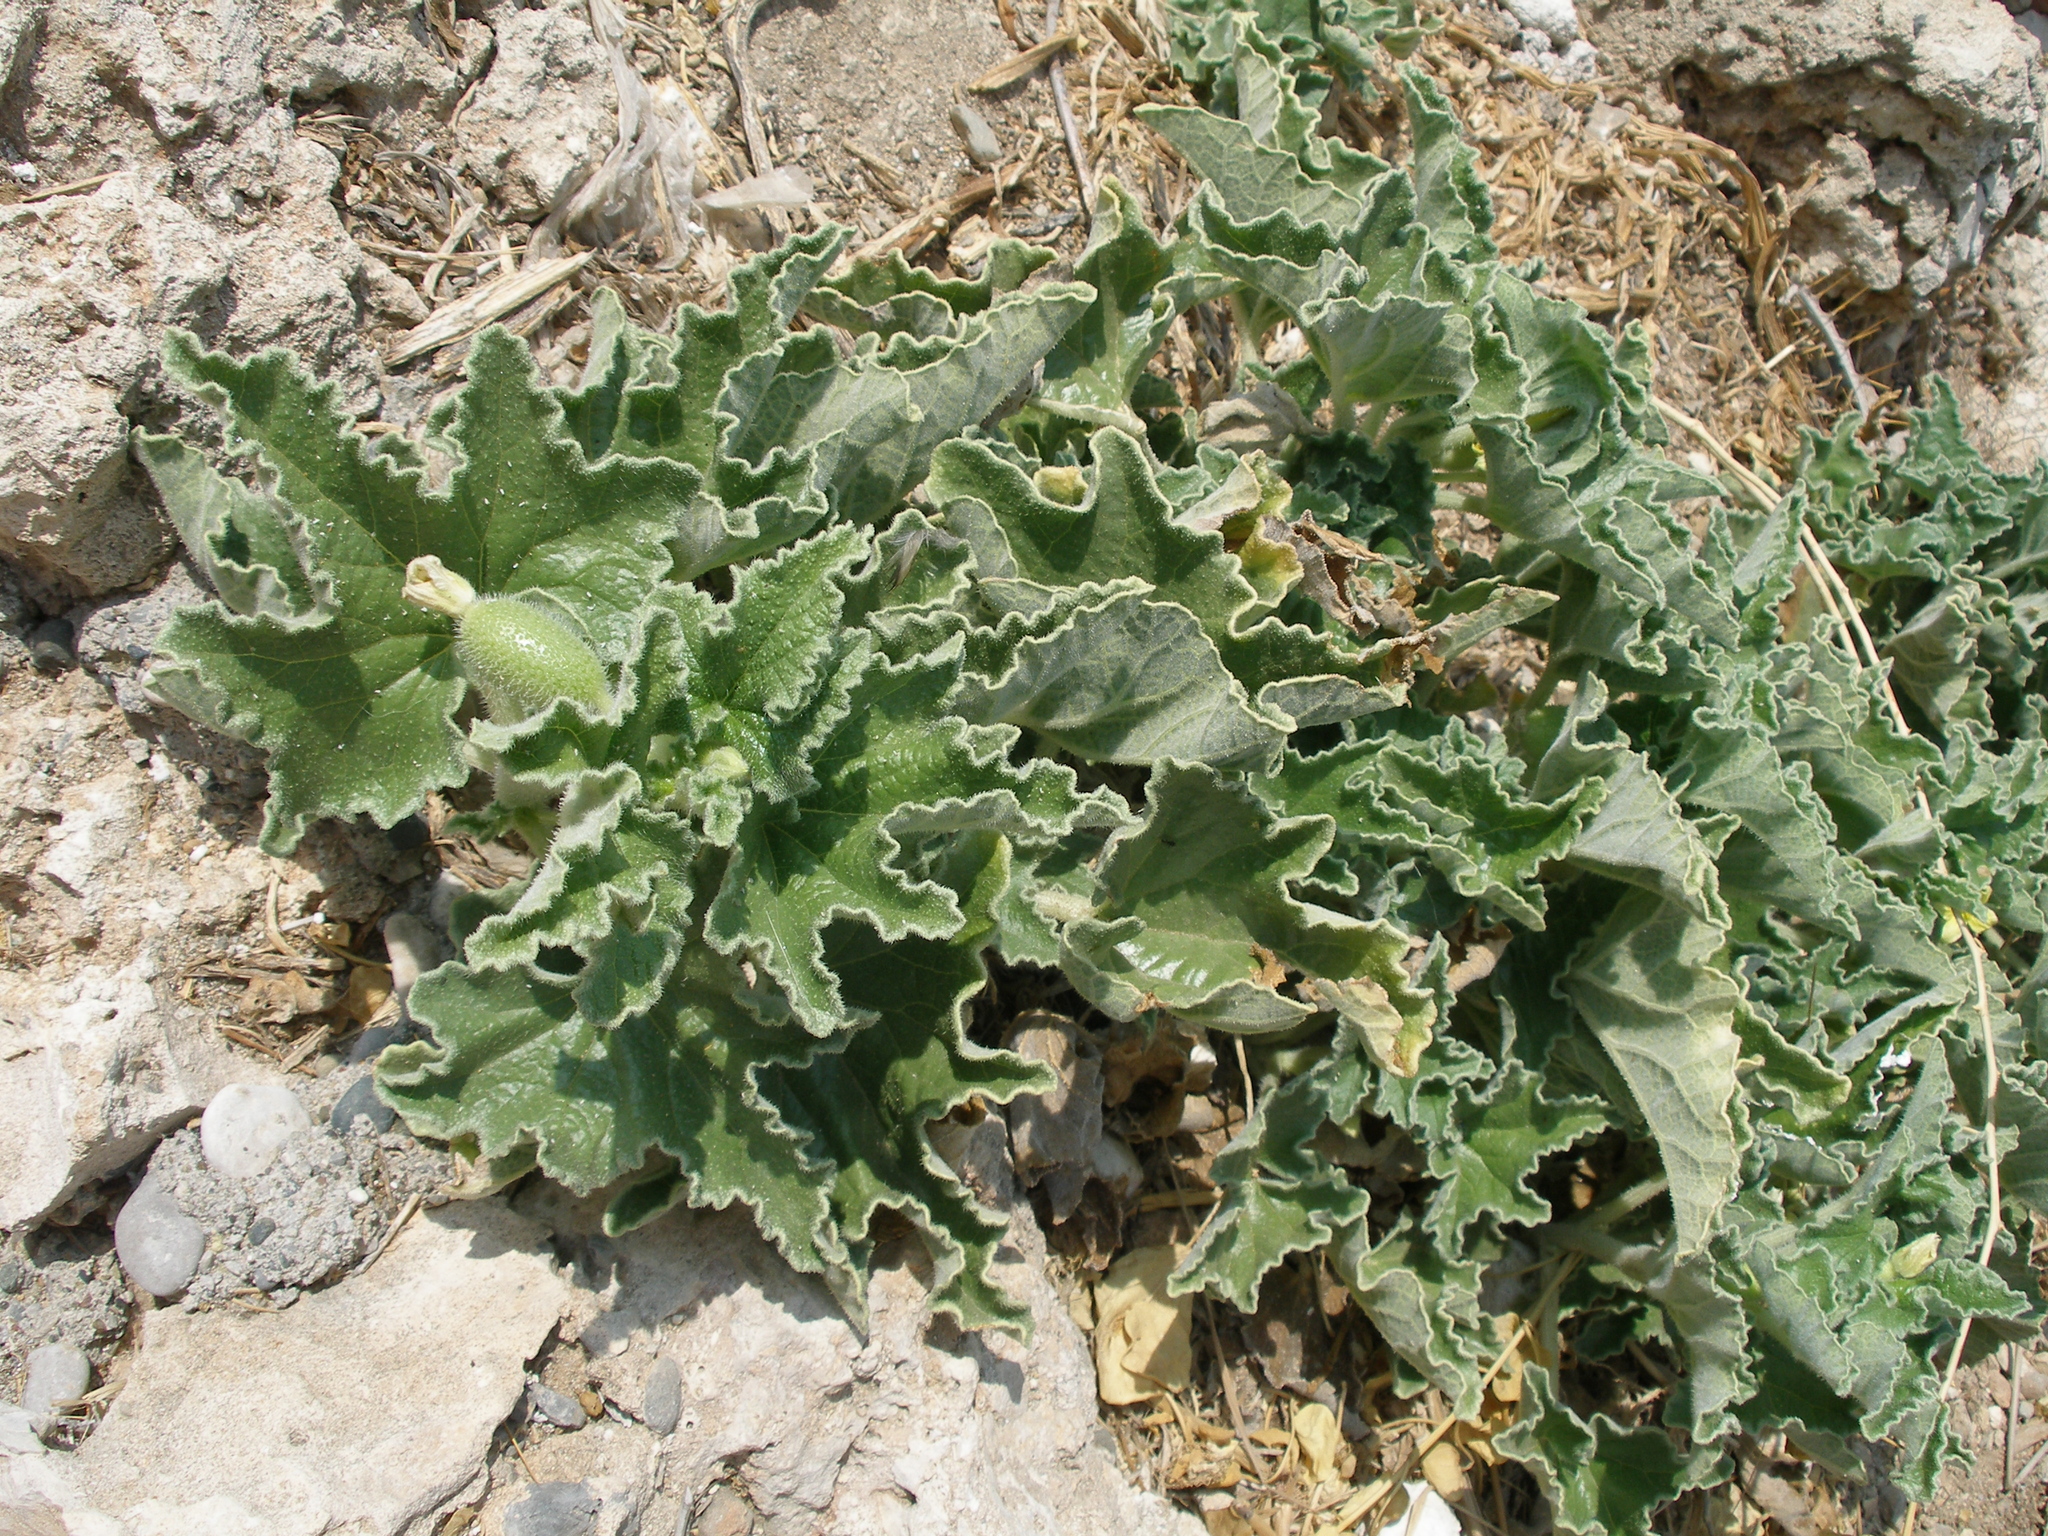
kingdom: Plantae
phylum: Tracheophyta
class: Magnoliopsida
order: Cucurbitales
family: Cucurbitaceae
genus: Ecballium
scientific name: Ecballium elaterium
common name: Squirting cucumber
